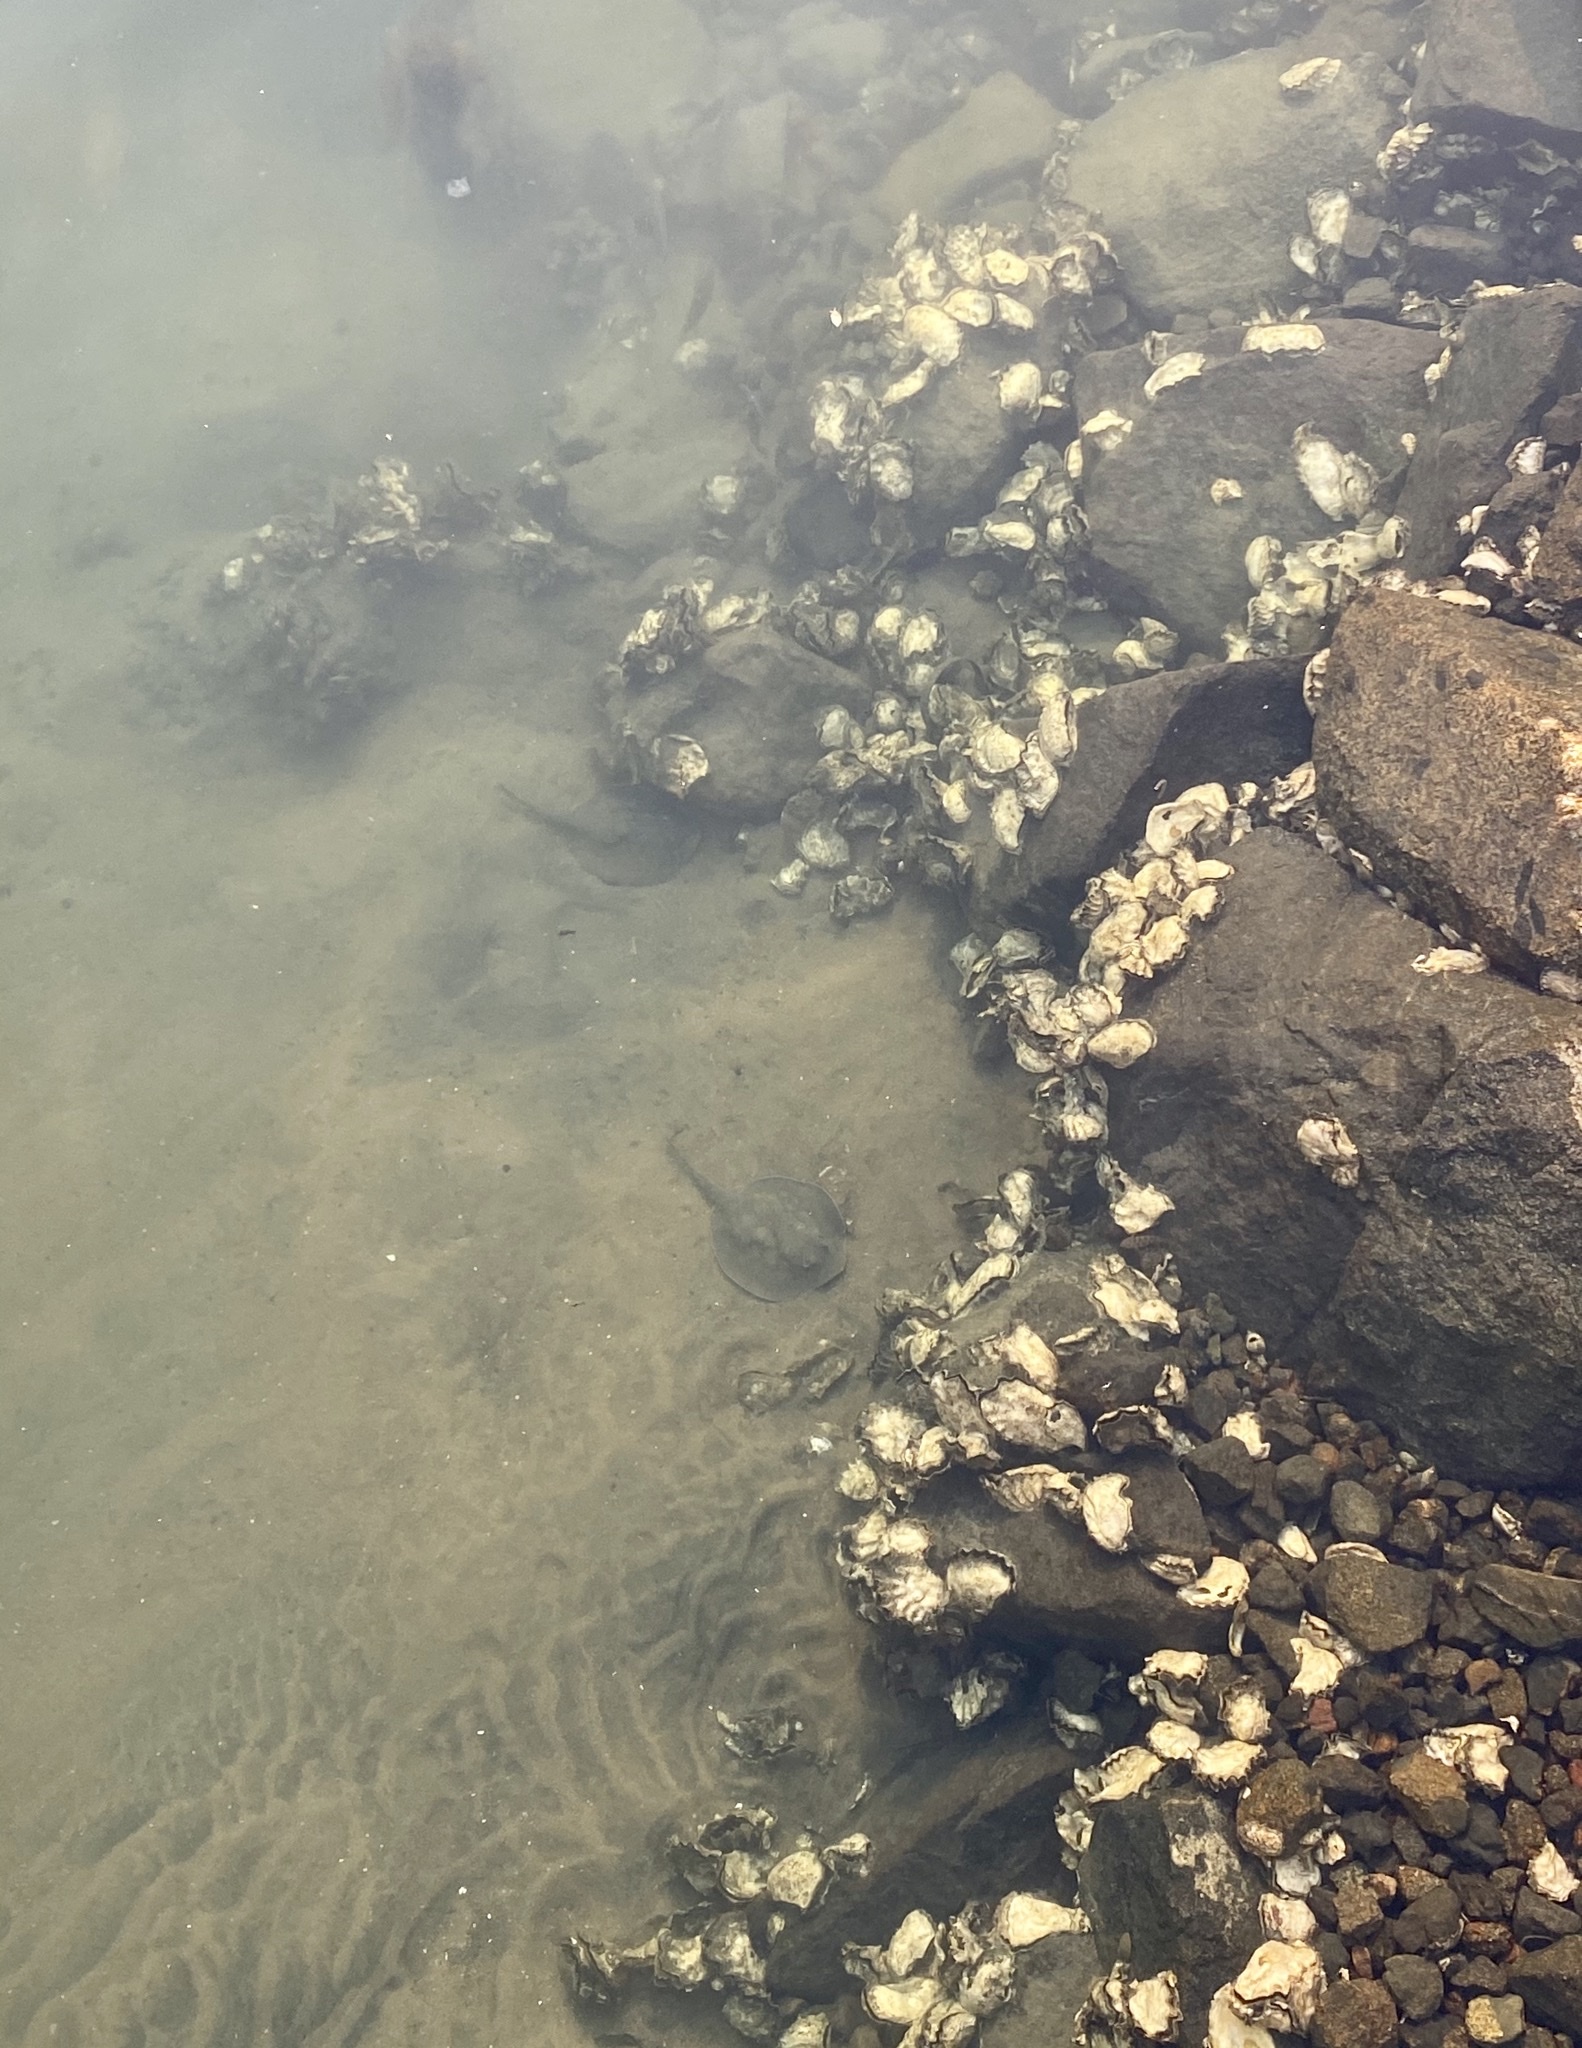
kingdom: Animalia
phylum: Chordata
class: Elasmobranchii
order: Myliobatiformes
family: Urolophidae
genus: Urolophus
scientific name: Urolophus halleri
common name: Round stingray
